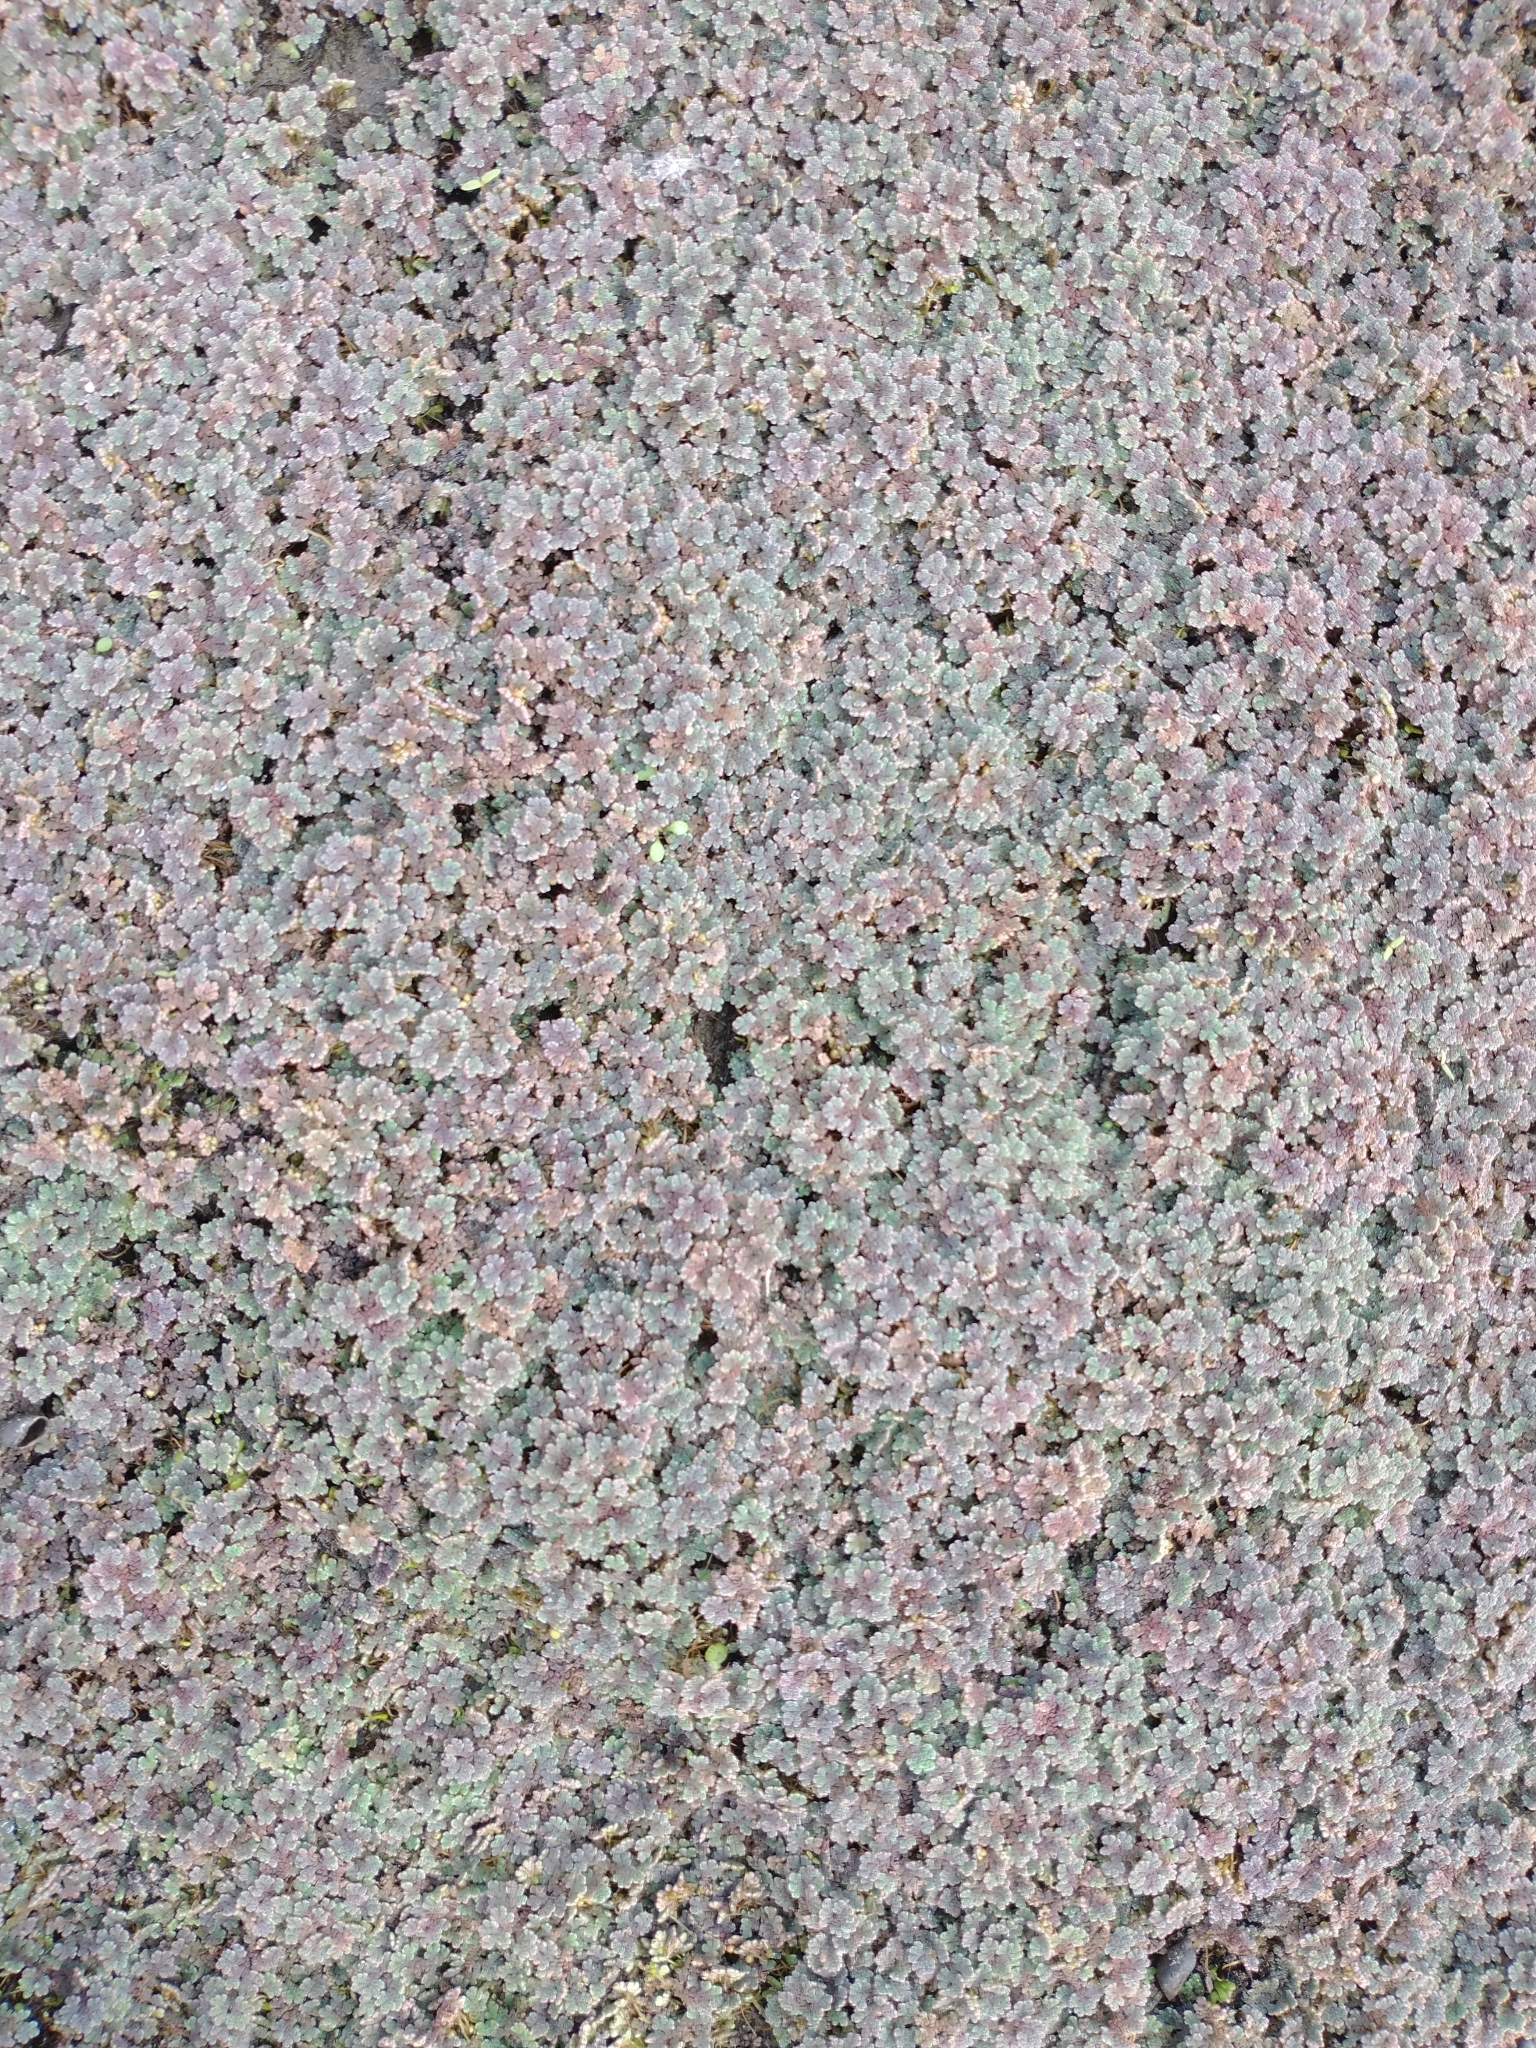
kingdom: Plantae
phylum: Tracheophyta
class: Polypodiopsida
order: Salviniales
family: Salviniaceae
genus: Azolla
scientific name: Azolla filiculoides
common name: Water fern
